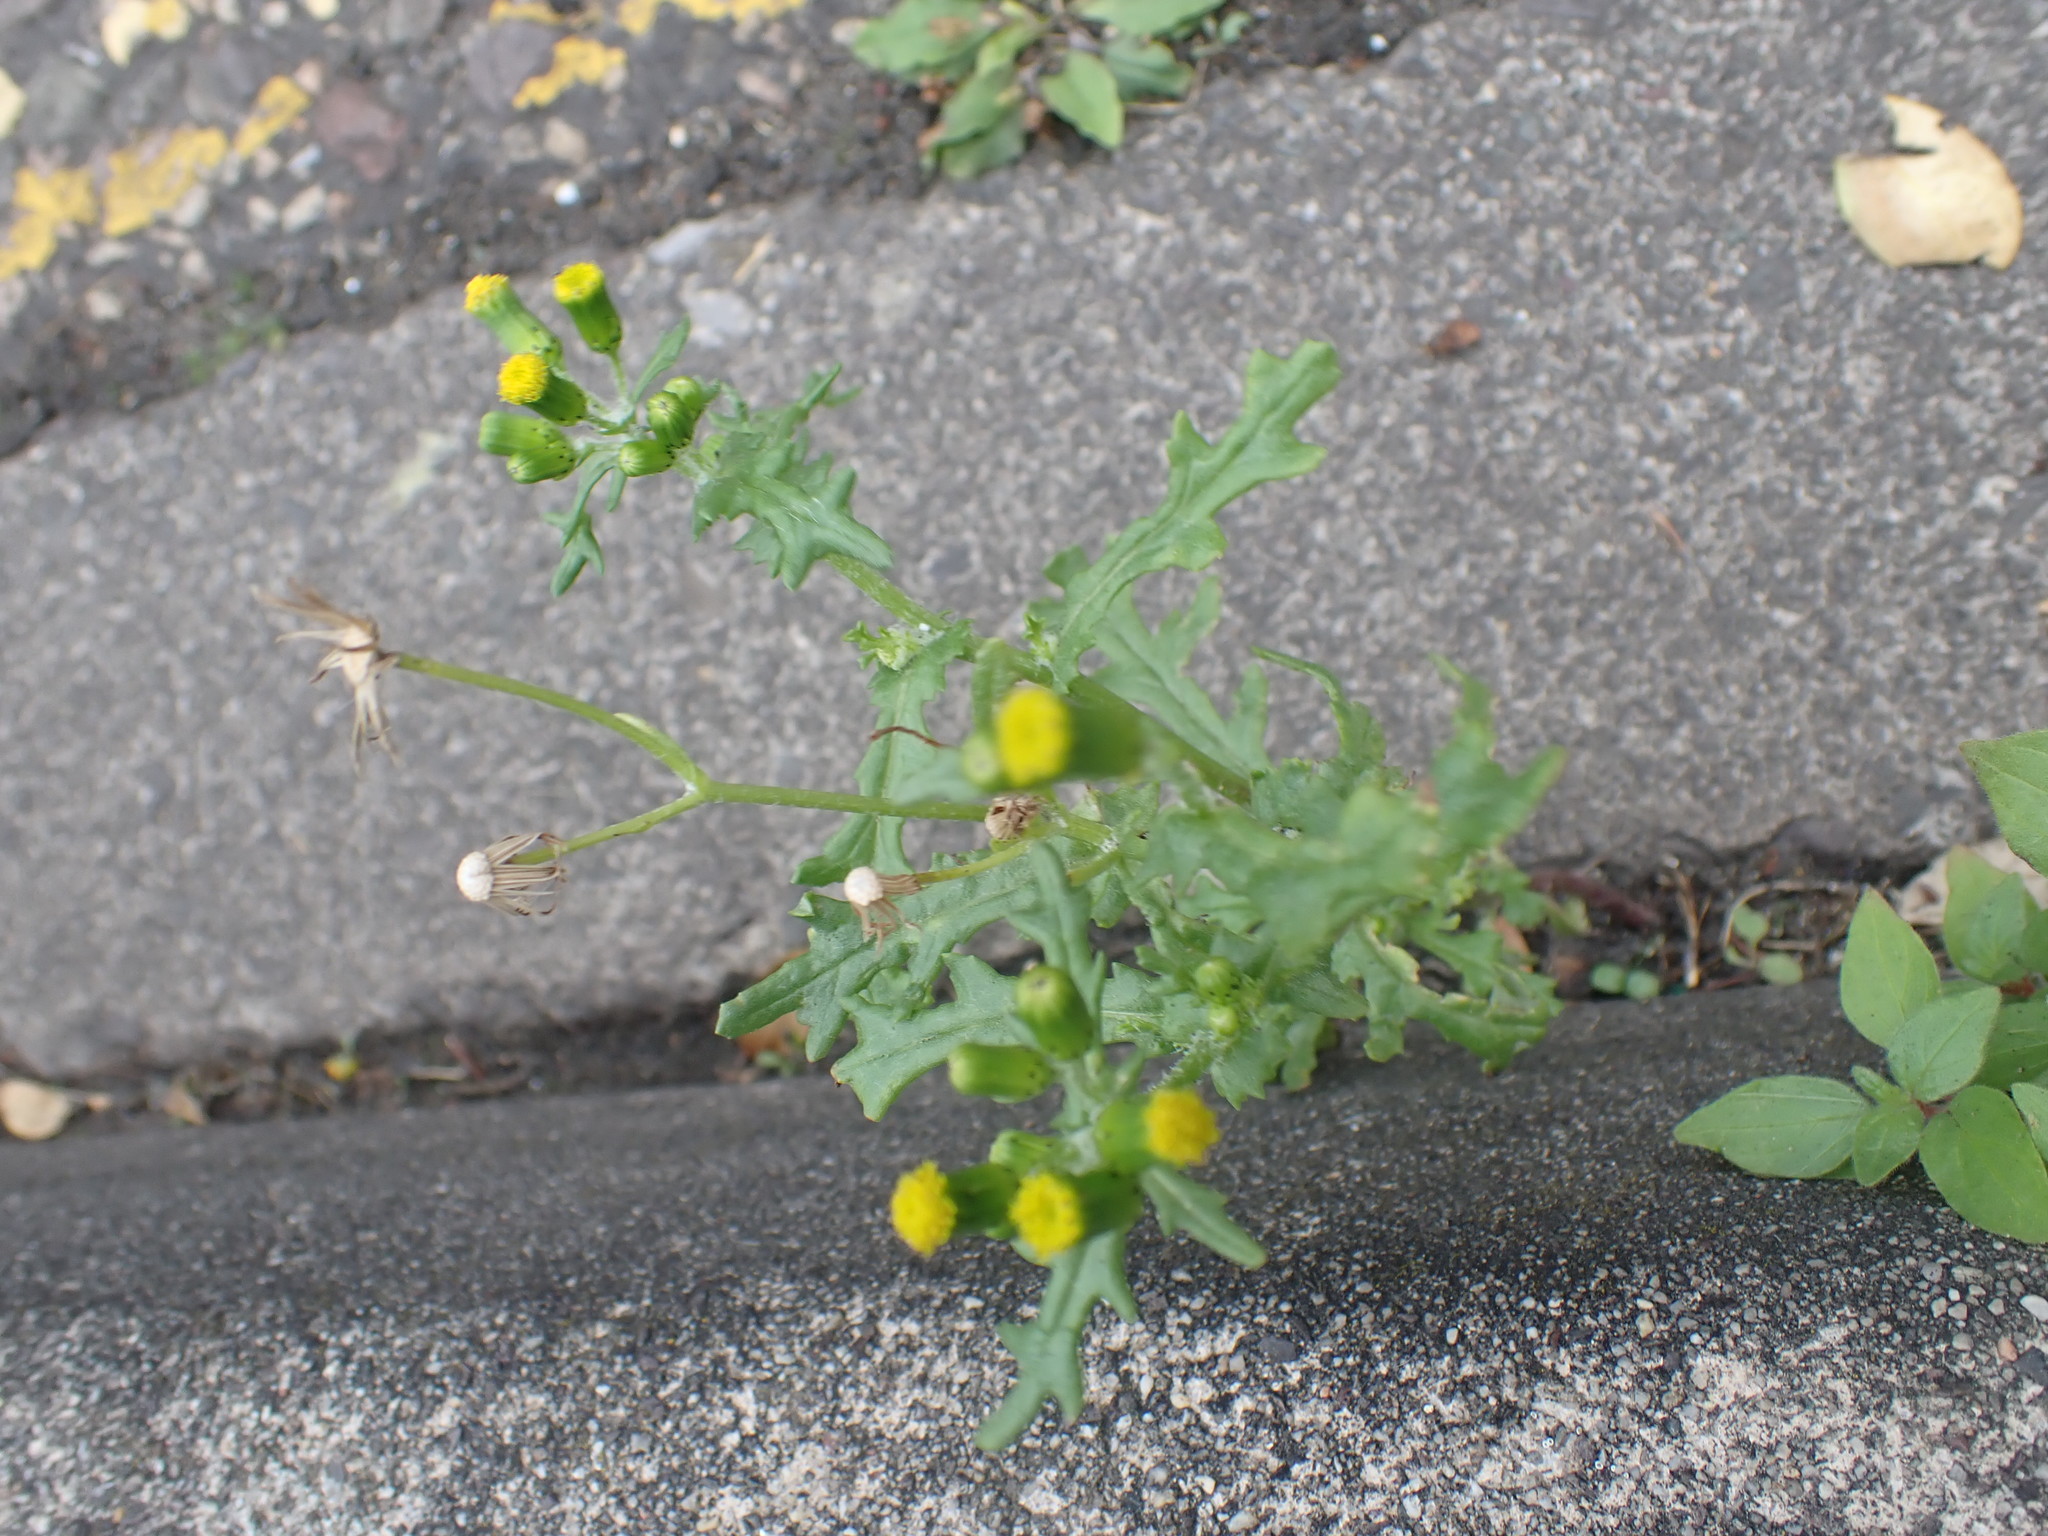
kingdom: Plantae
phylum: Tracheophyta
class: Magnoliopsida
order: Asterales
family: Asteraceae
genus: Senecio
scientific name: Senecio vulgaris
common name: Old-man-in-the-spring
